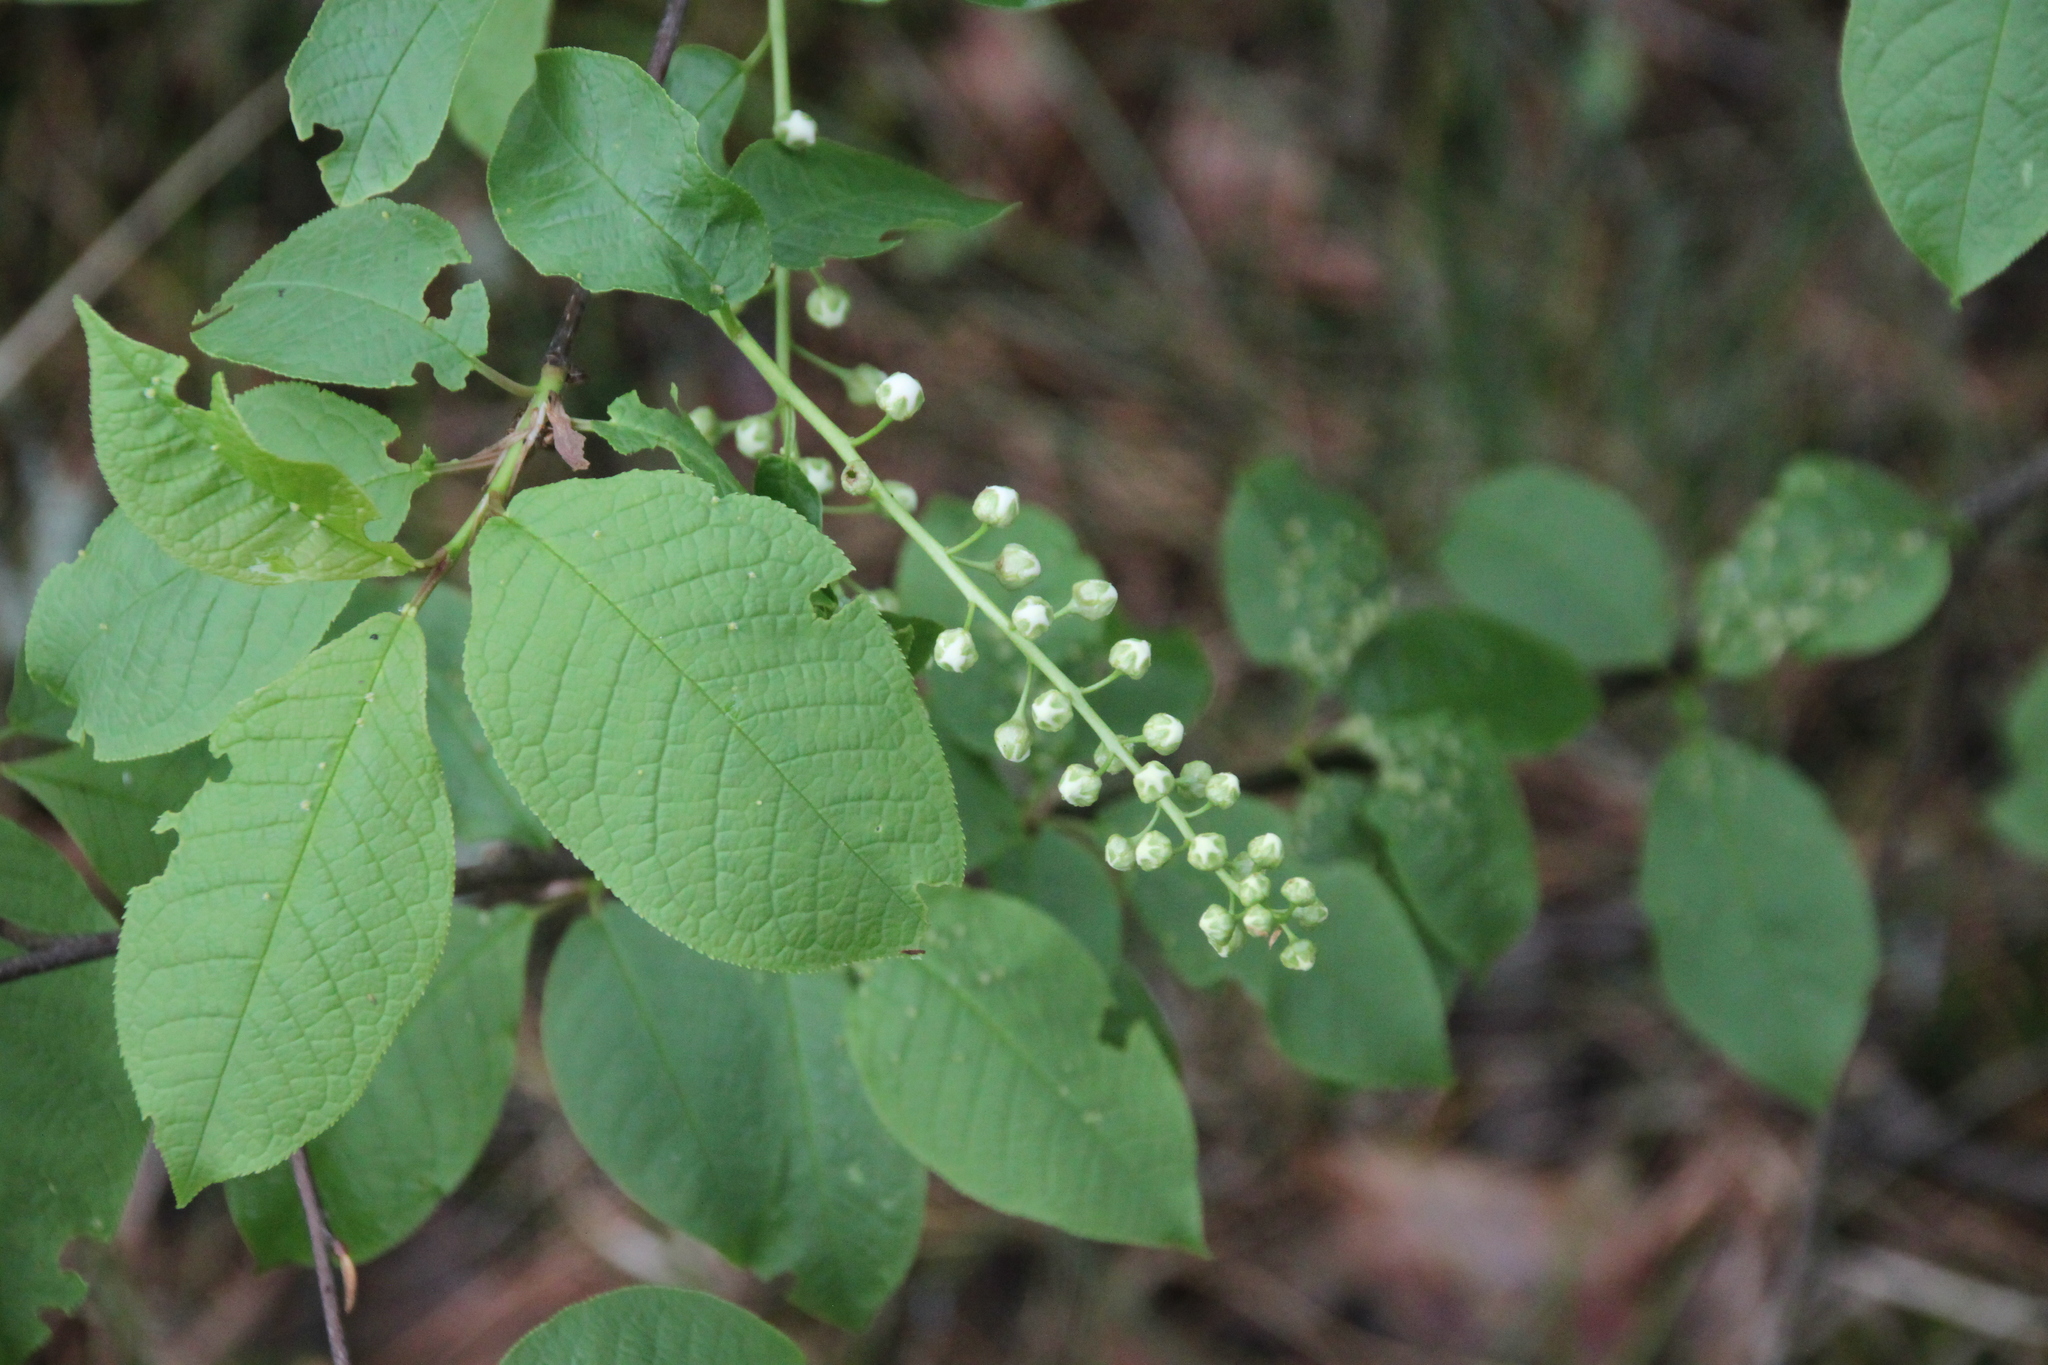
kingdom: Plantae
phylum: Tracheophyta
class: Magnoliopsida
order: Rosales
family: Rosaceae
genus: Prunus
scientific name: Prunus padus
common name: Bird cherry
